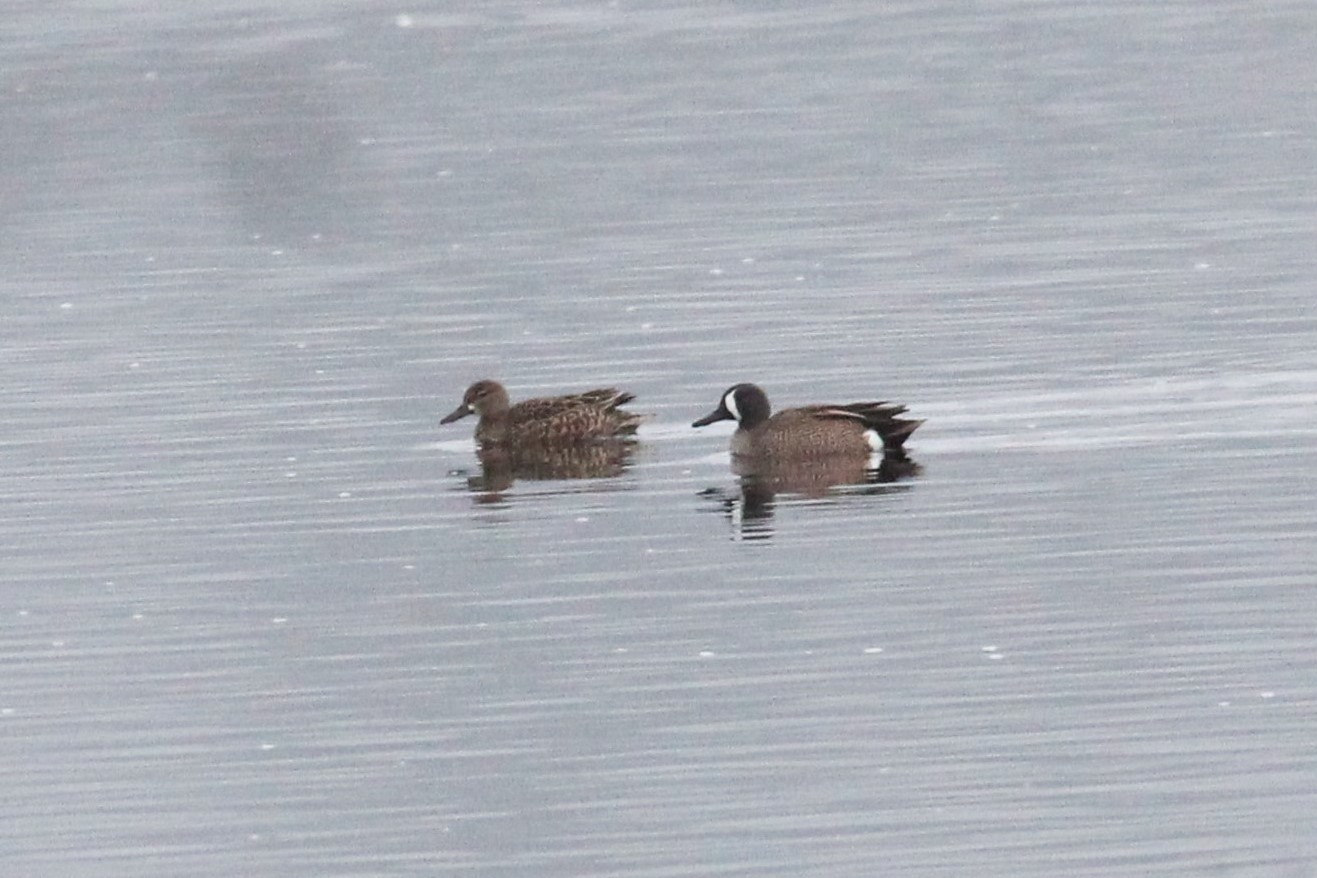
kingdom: Animalia
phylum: Chordata
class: Aves
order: Anseriformes
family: Anatidae
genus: Spatula
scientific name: Spatula discors
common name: Blue-winged teal
